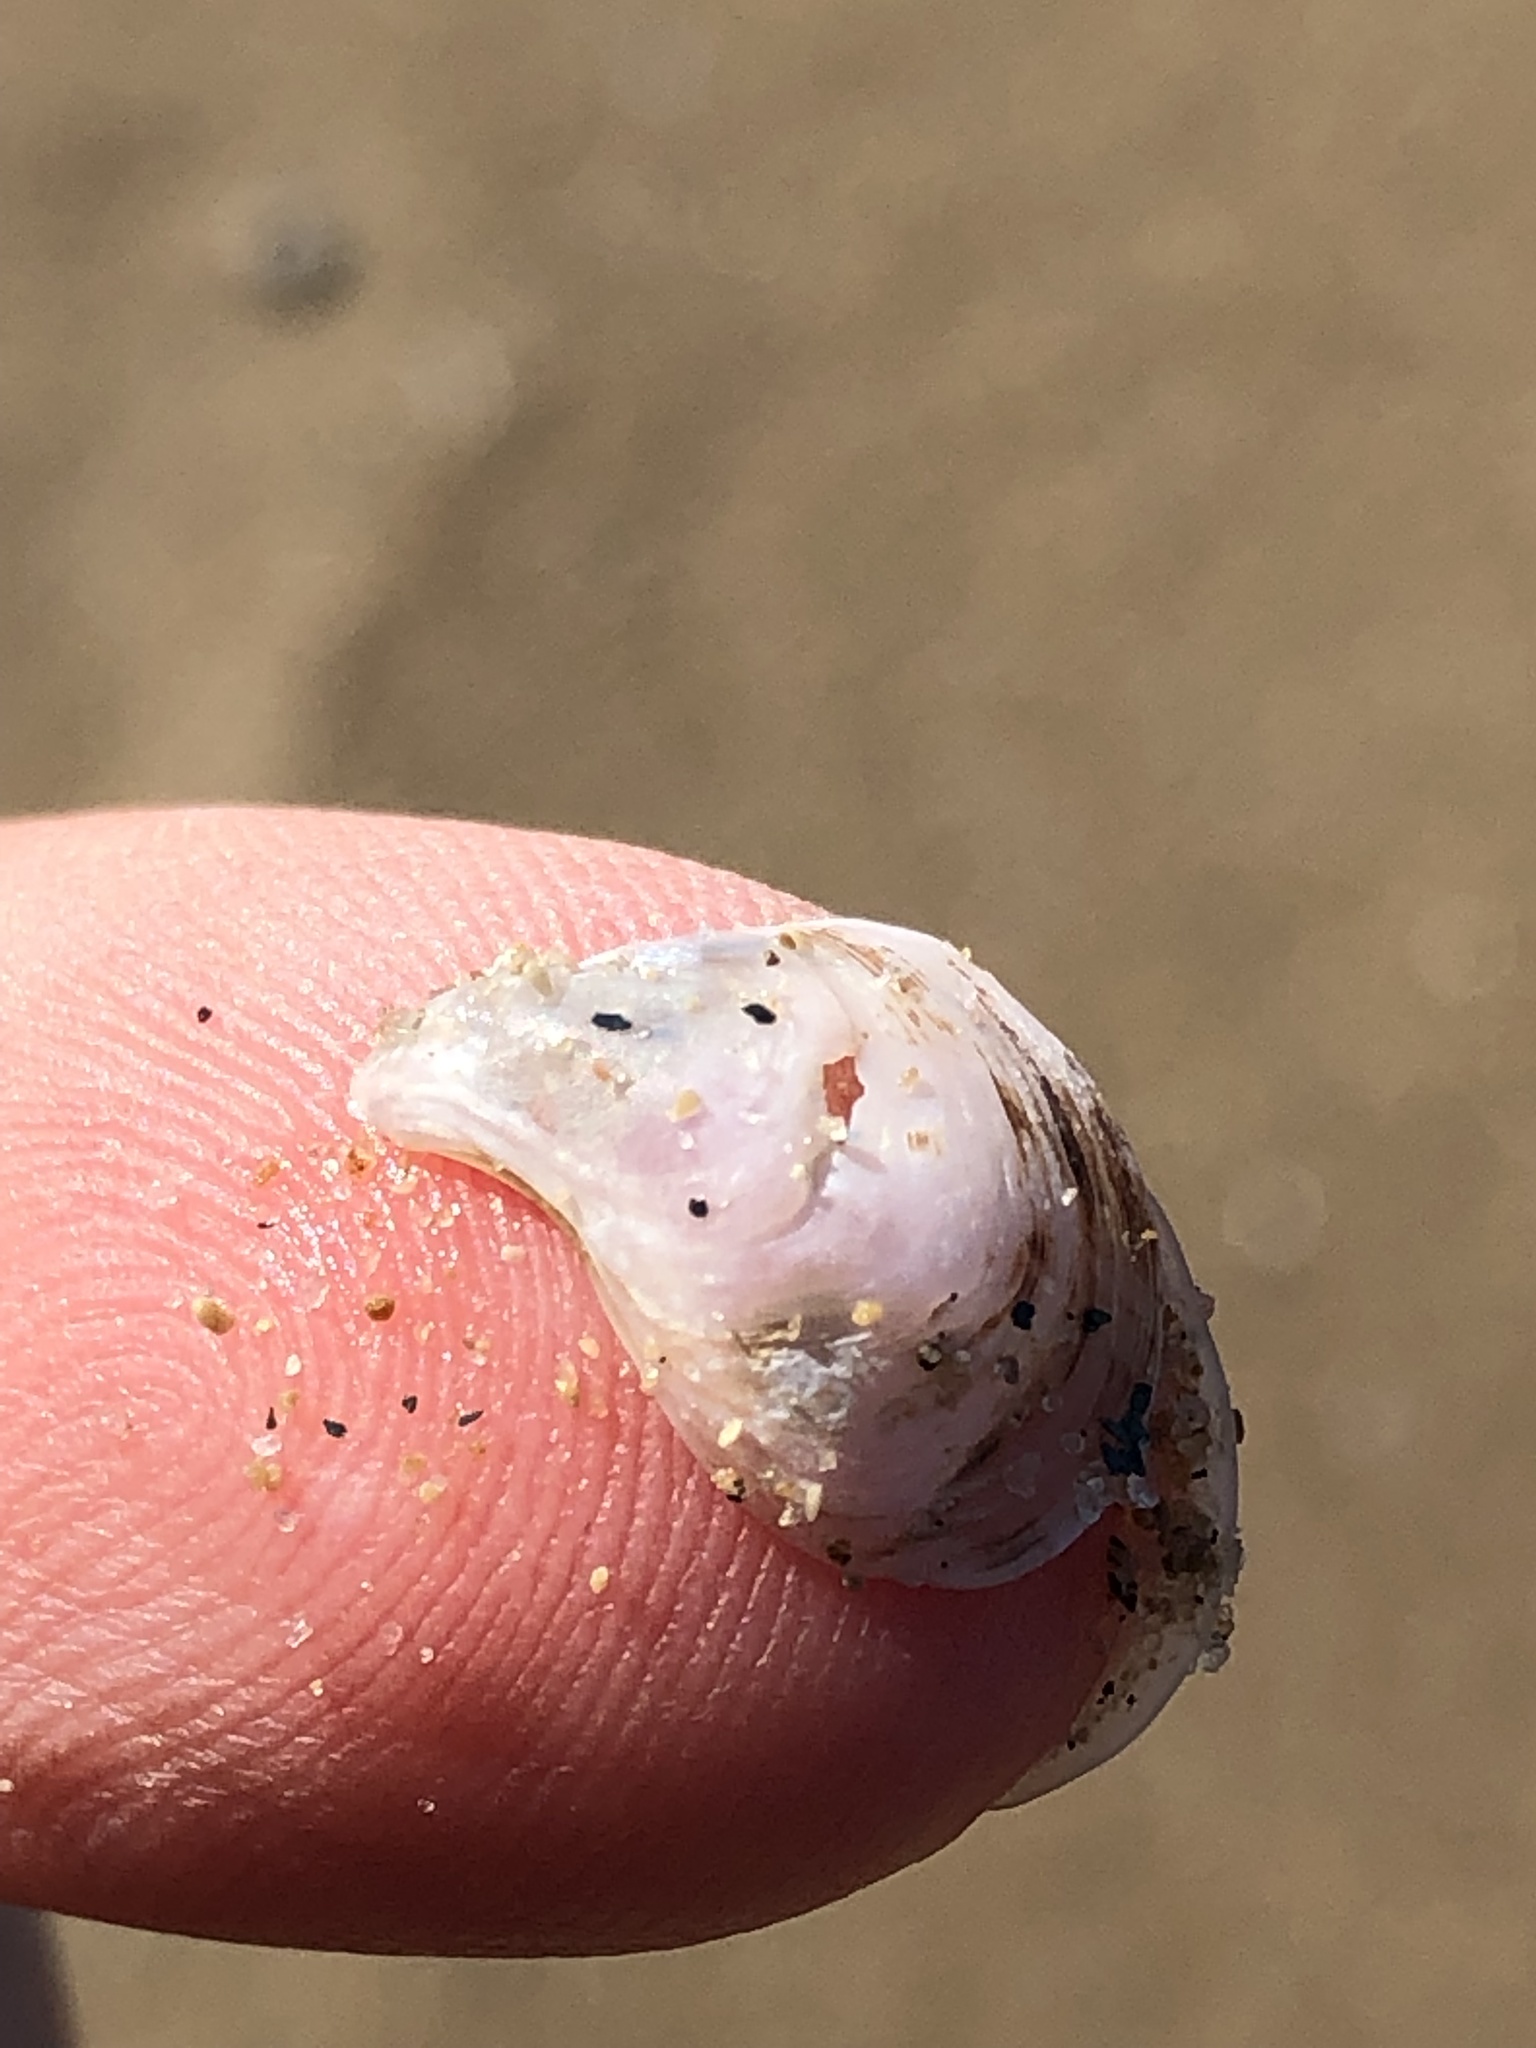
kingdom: Animalia
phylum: Mollusca
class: Bivalvia
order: Myida
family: Dreissenidae
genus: Dreissena
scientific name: Dreissena bugensis
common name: Quagga mussel
